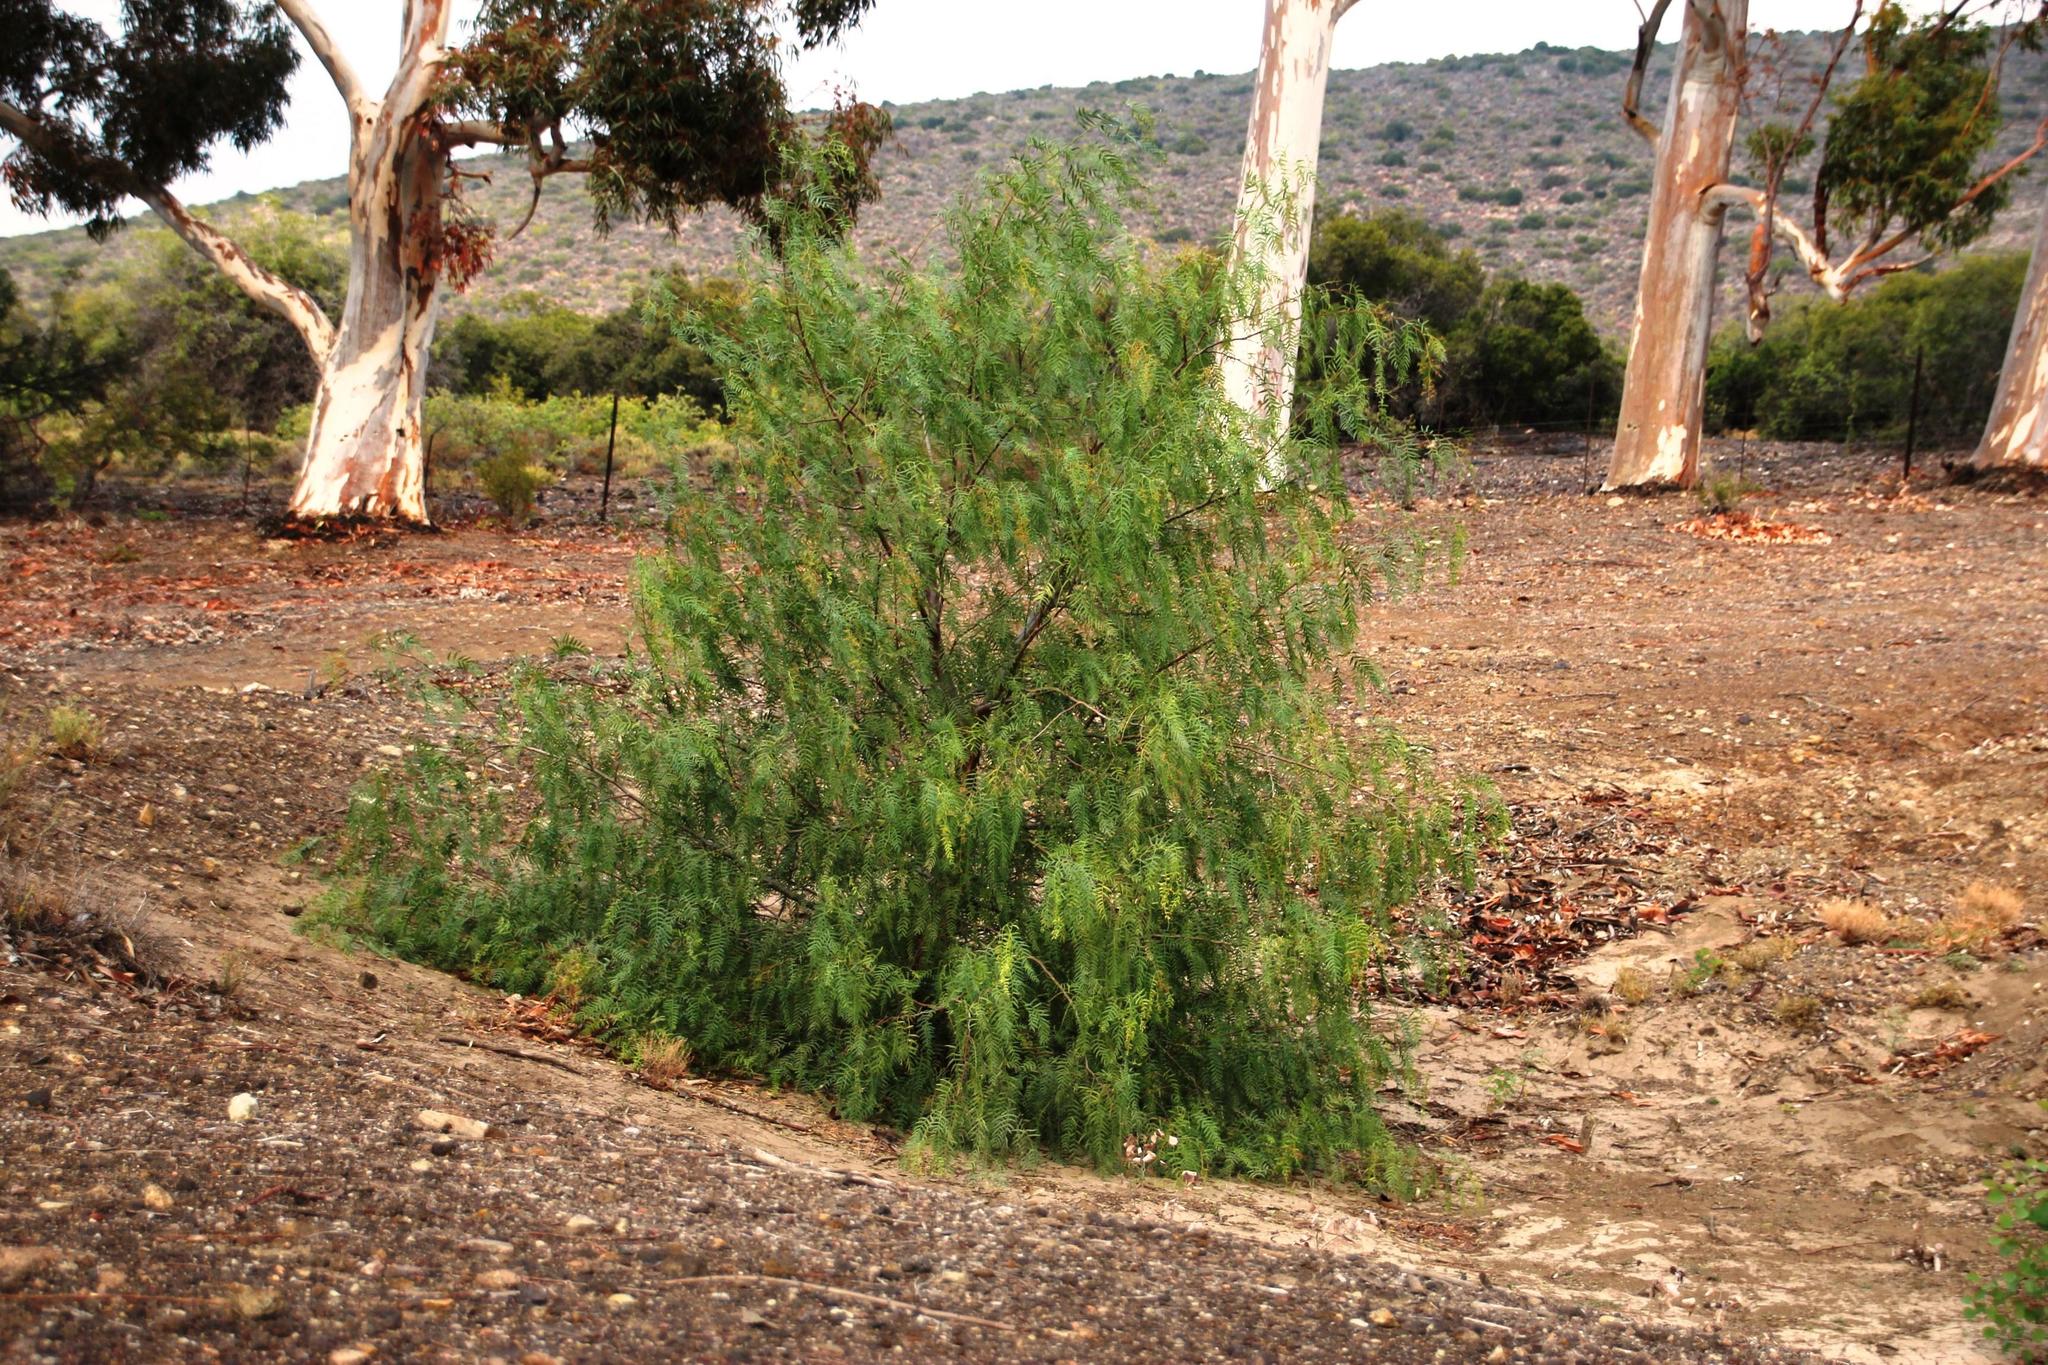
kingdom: Plantae
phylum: Tracheophyta
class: Magnoliopsida
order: Sapindales
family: Anacardiaceae
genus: Schinus
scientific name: Schinus molle
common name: Peruvian peppertree
